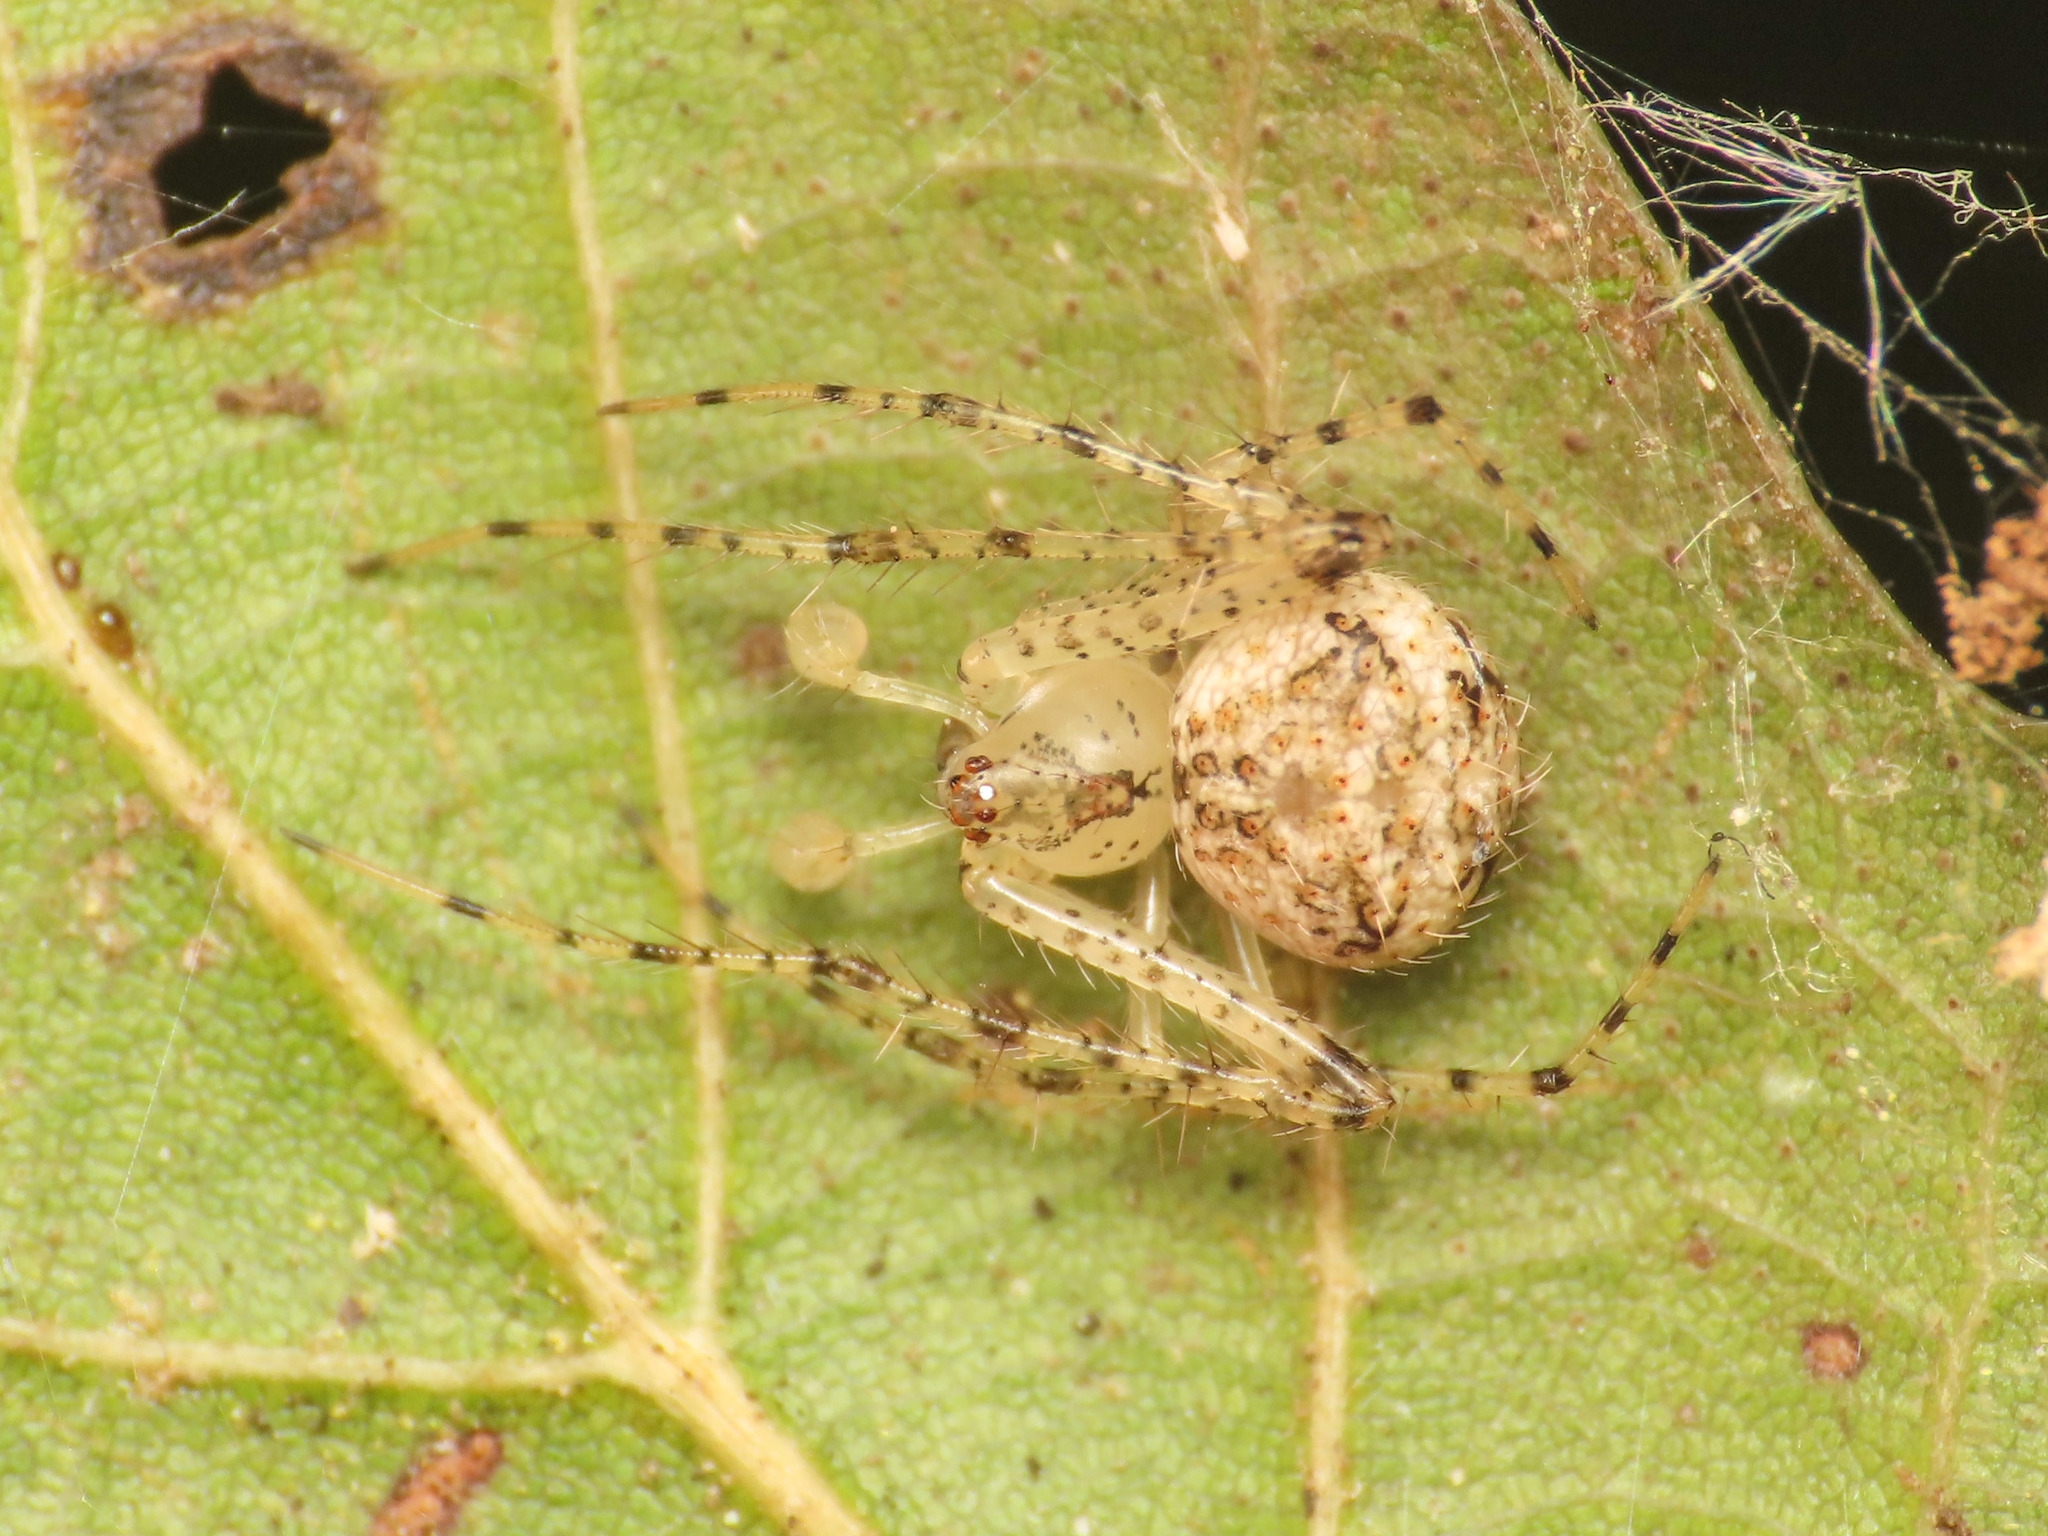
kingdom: Animalia
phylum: Arthropoda
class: Arachnida
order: Araneae
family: Mimetidae
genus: Mimetus
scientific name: Mimetus laevigatus
